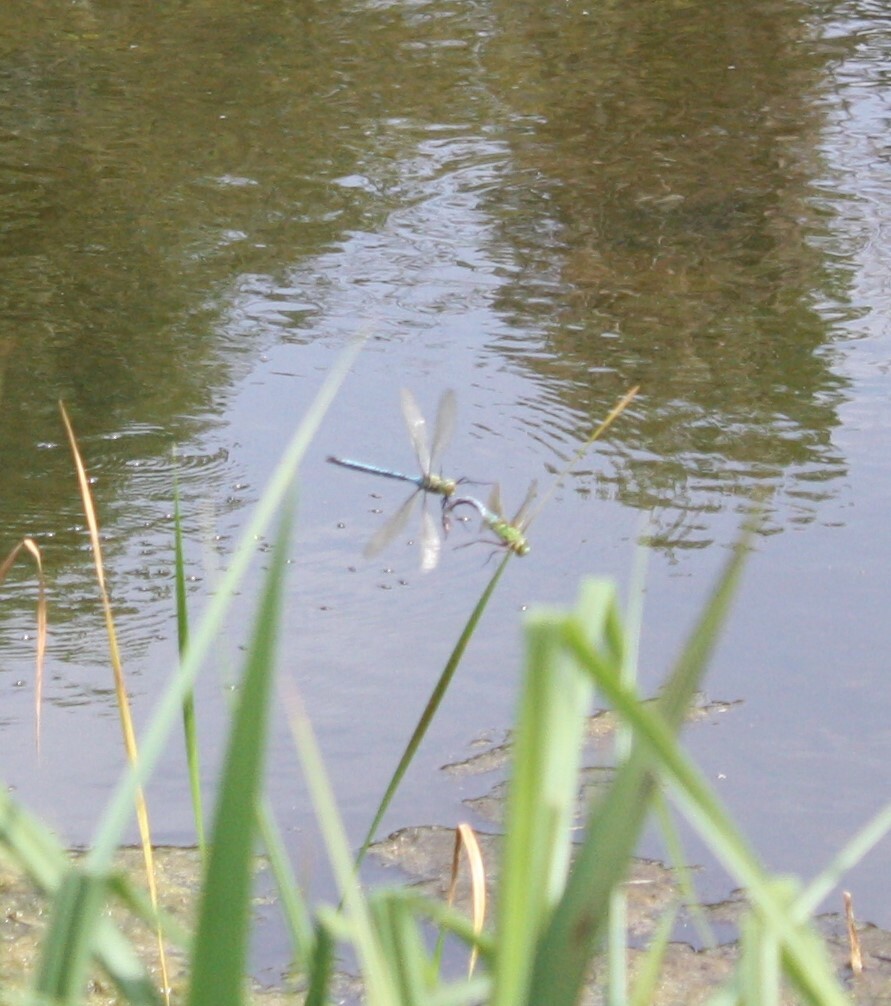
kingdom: Animalia
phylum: Arthropoda
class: Insecta
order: Odonata
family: Aeshnidae
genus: Anax
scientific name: Anax imperator
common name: Emperor dragonfly
